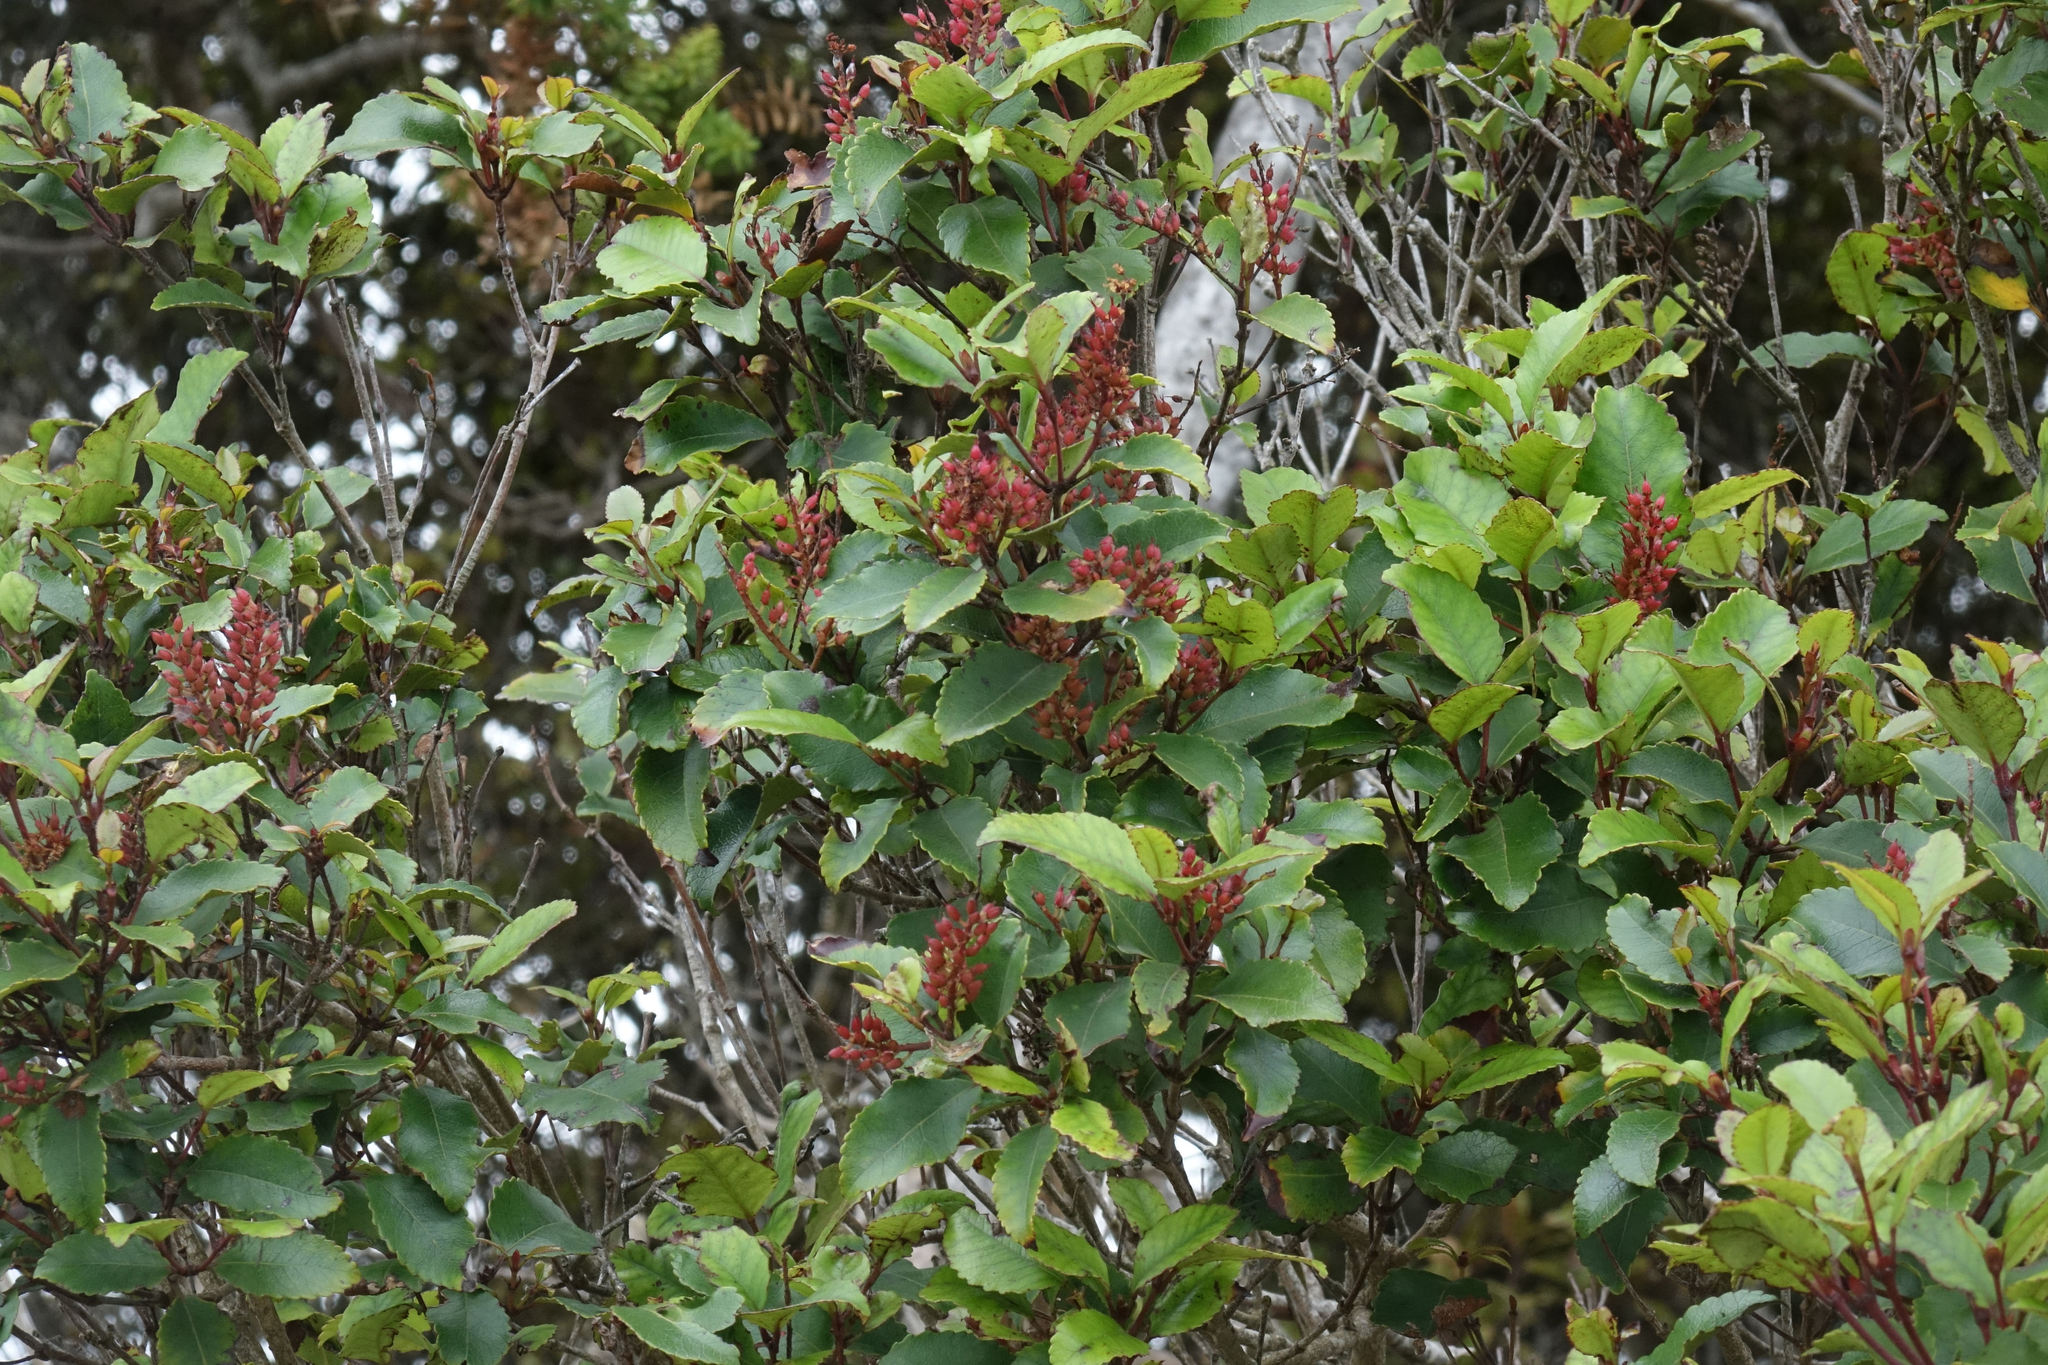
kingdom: Plantae
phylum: Tracheophyta
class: Magnoliopsida
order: Oxalidales
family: Cunoniaceae
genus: Pterophylla
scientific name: Pterophylla racemosa
